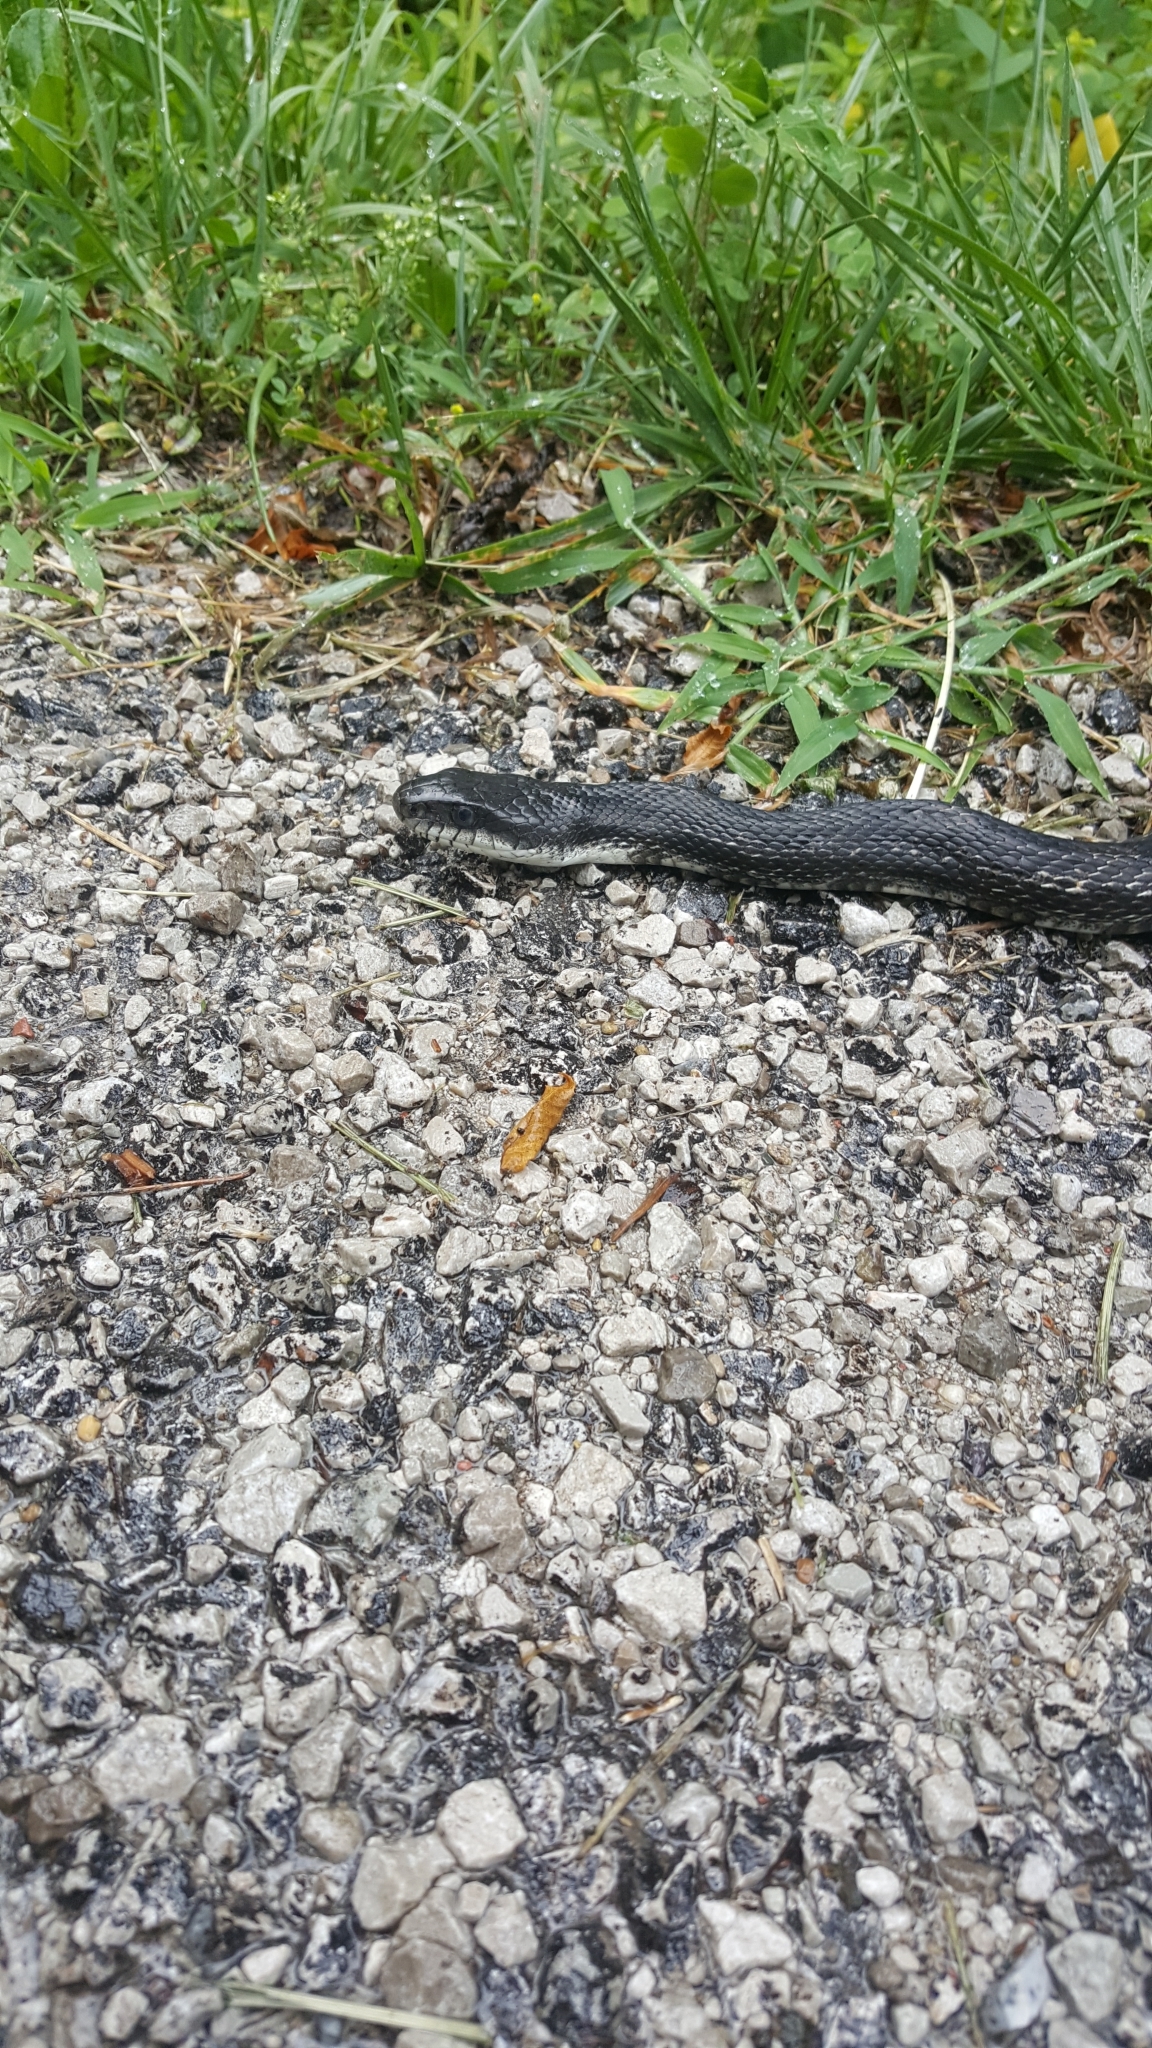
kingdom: Animalia
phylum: Chordata
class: Squamata
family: Colubridae
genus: Pantherophis
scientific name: Pantherophis spiloides
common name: Gray rat snake
